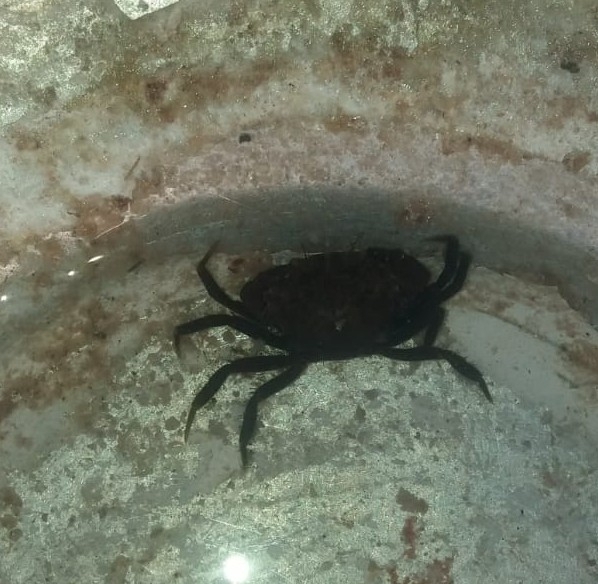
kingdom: Animalia
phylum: Arthropoda
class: Malacostraca
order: Decapoda
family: Panopeidae
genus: Rhithropanopeus
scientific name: Rhithropanopeus harrisii
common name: Dwarf crab
